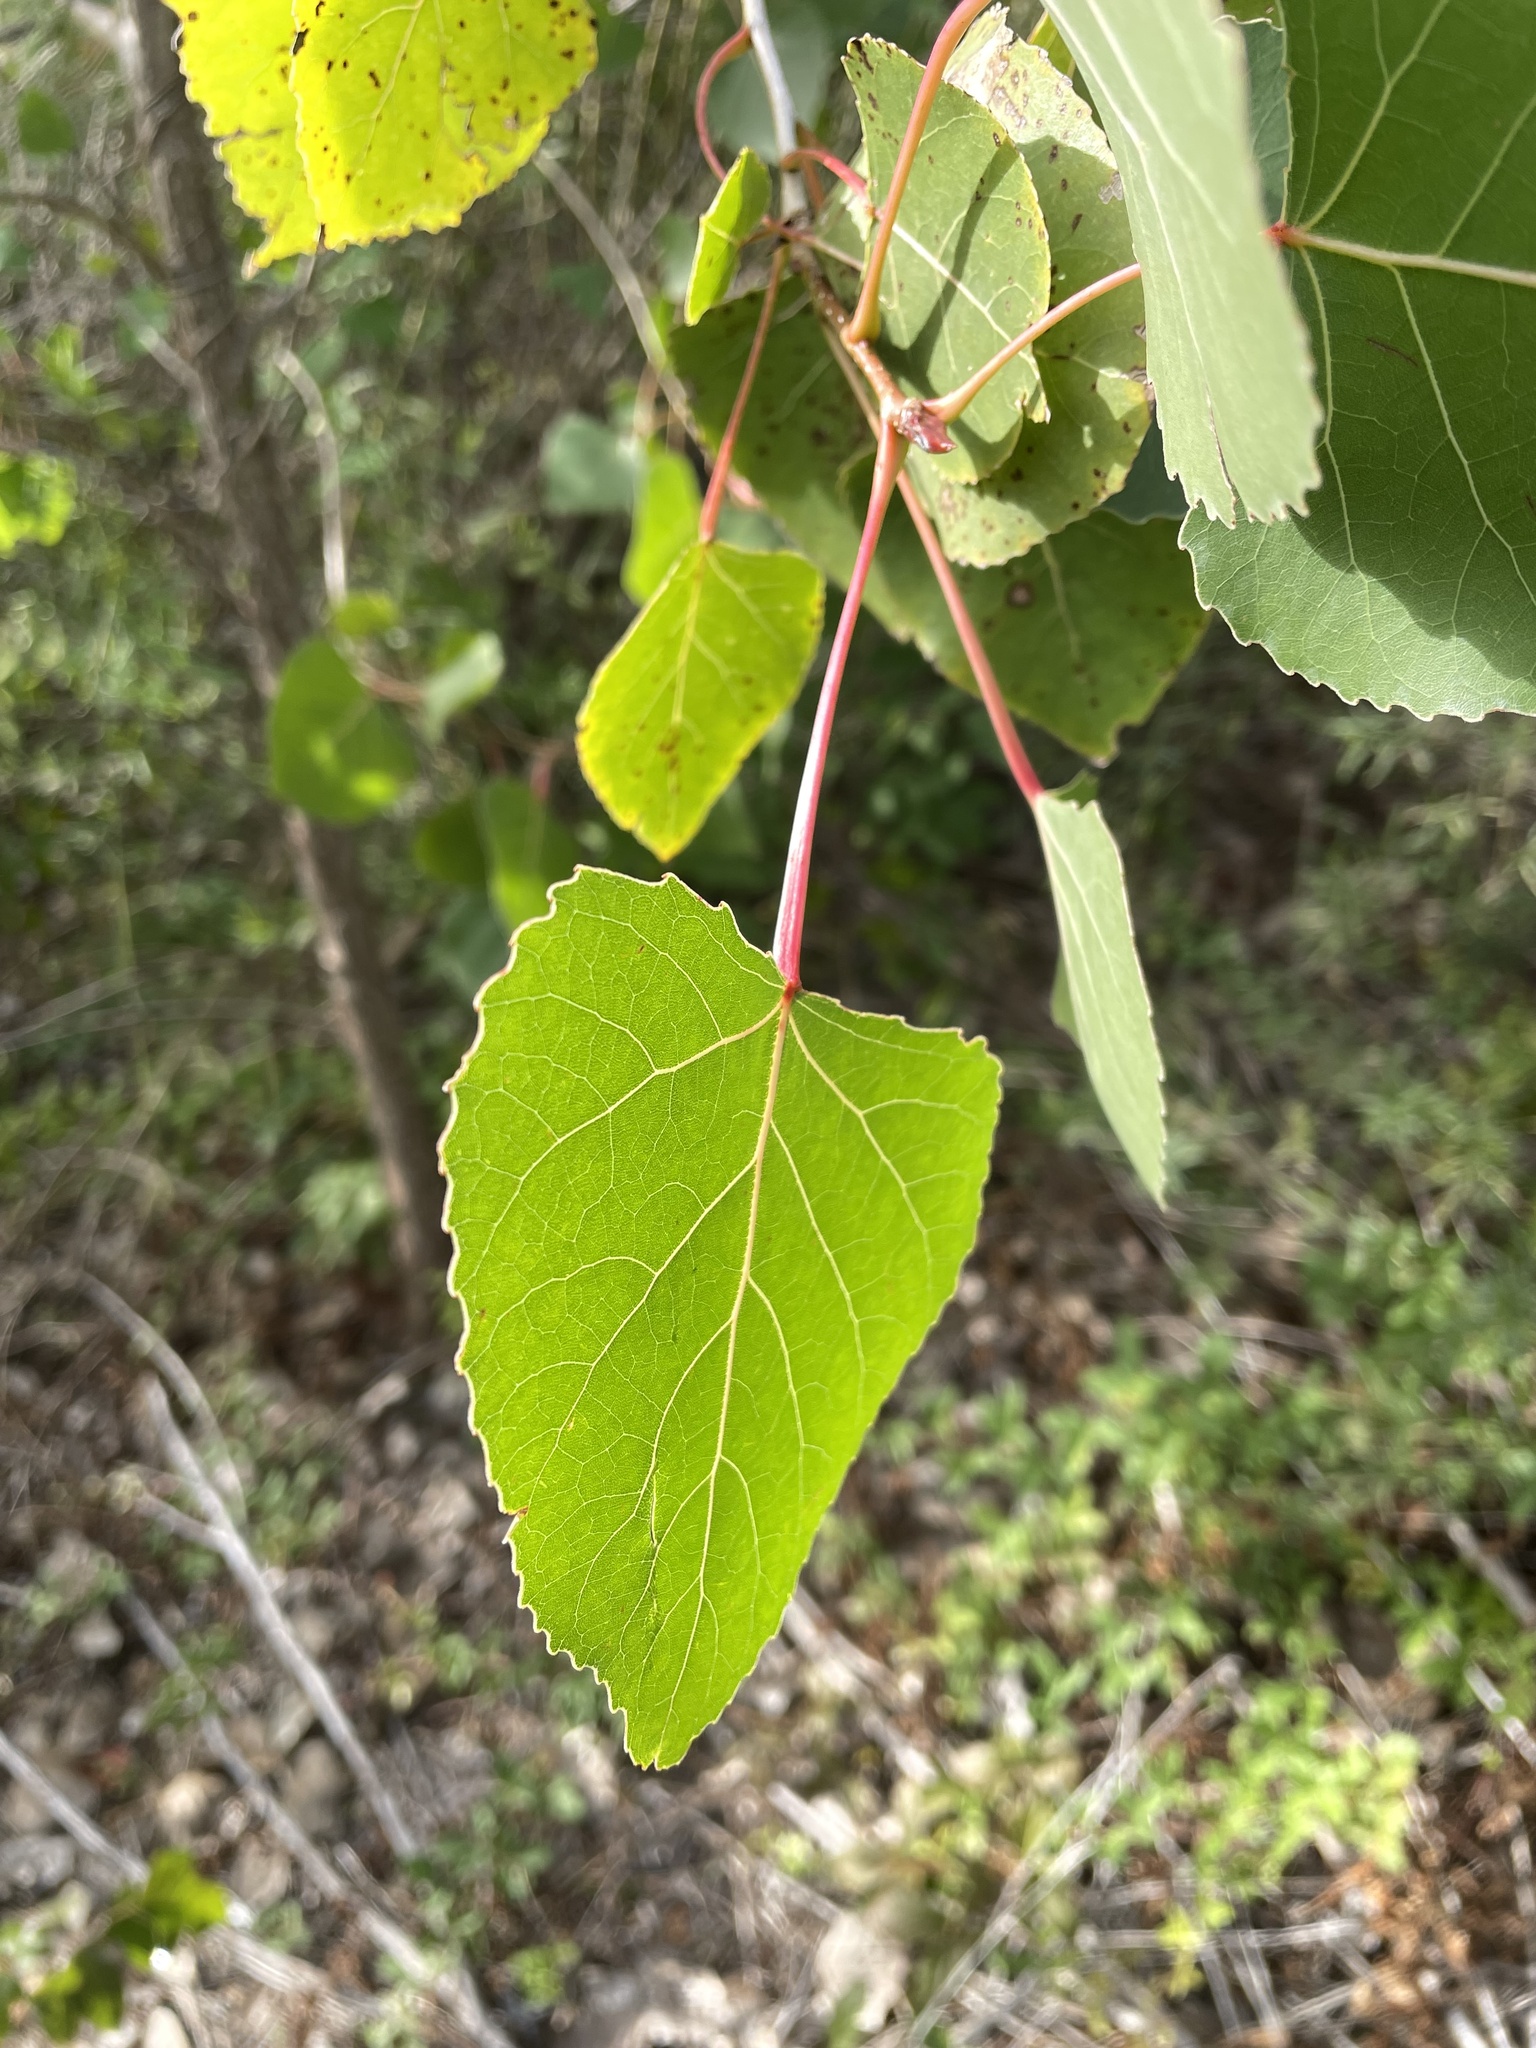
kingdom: Plantae
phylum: Tracheophyta
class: Magnoliopsida
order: Malpighiales
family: Salicaceae
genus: Populus
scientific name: Populus deltoides
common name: Eastern cottonwood
